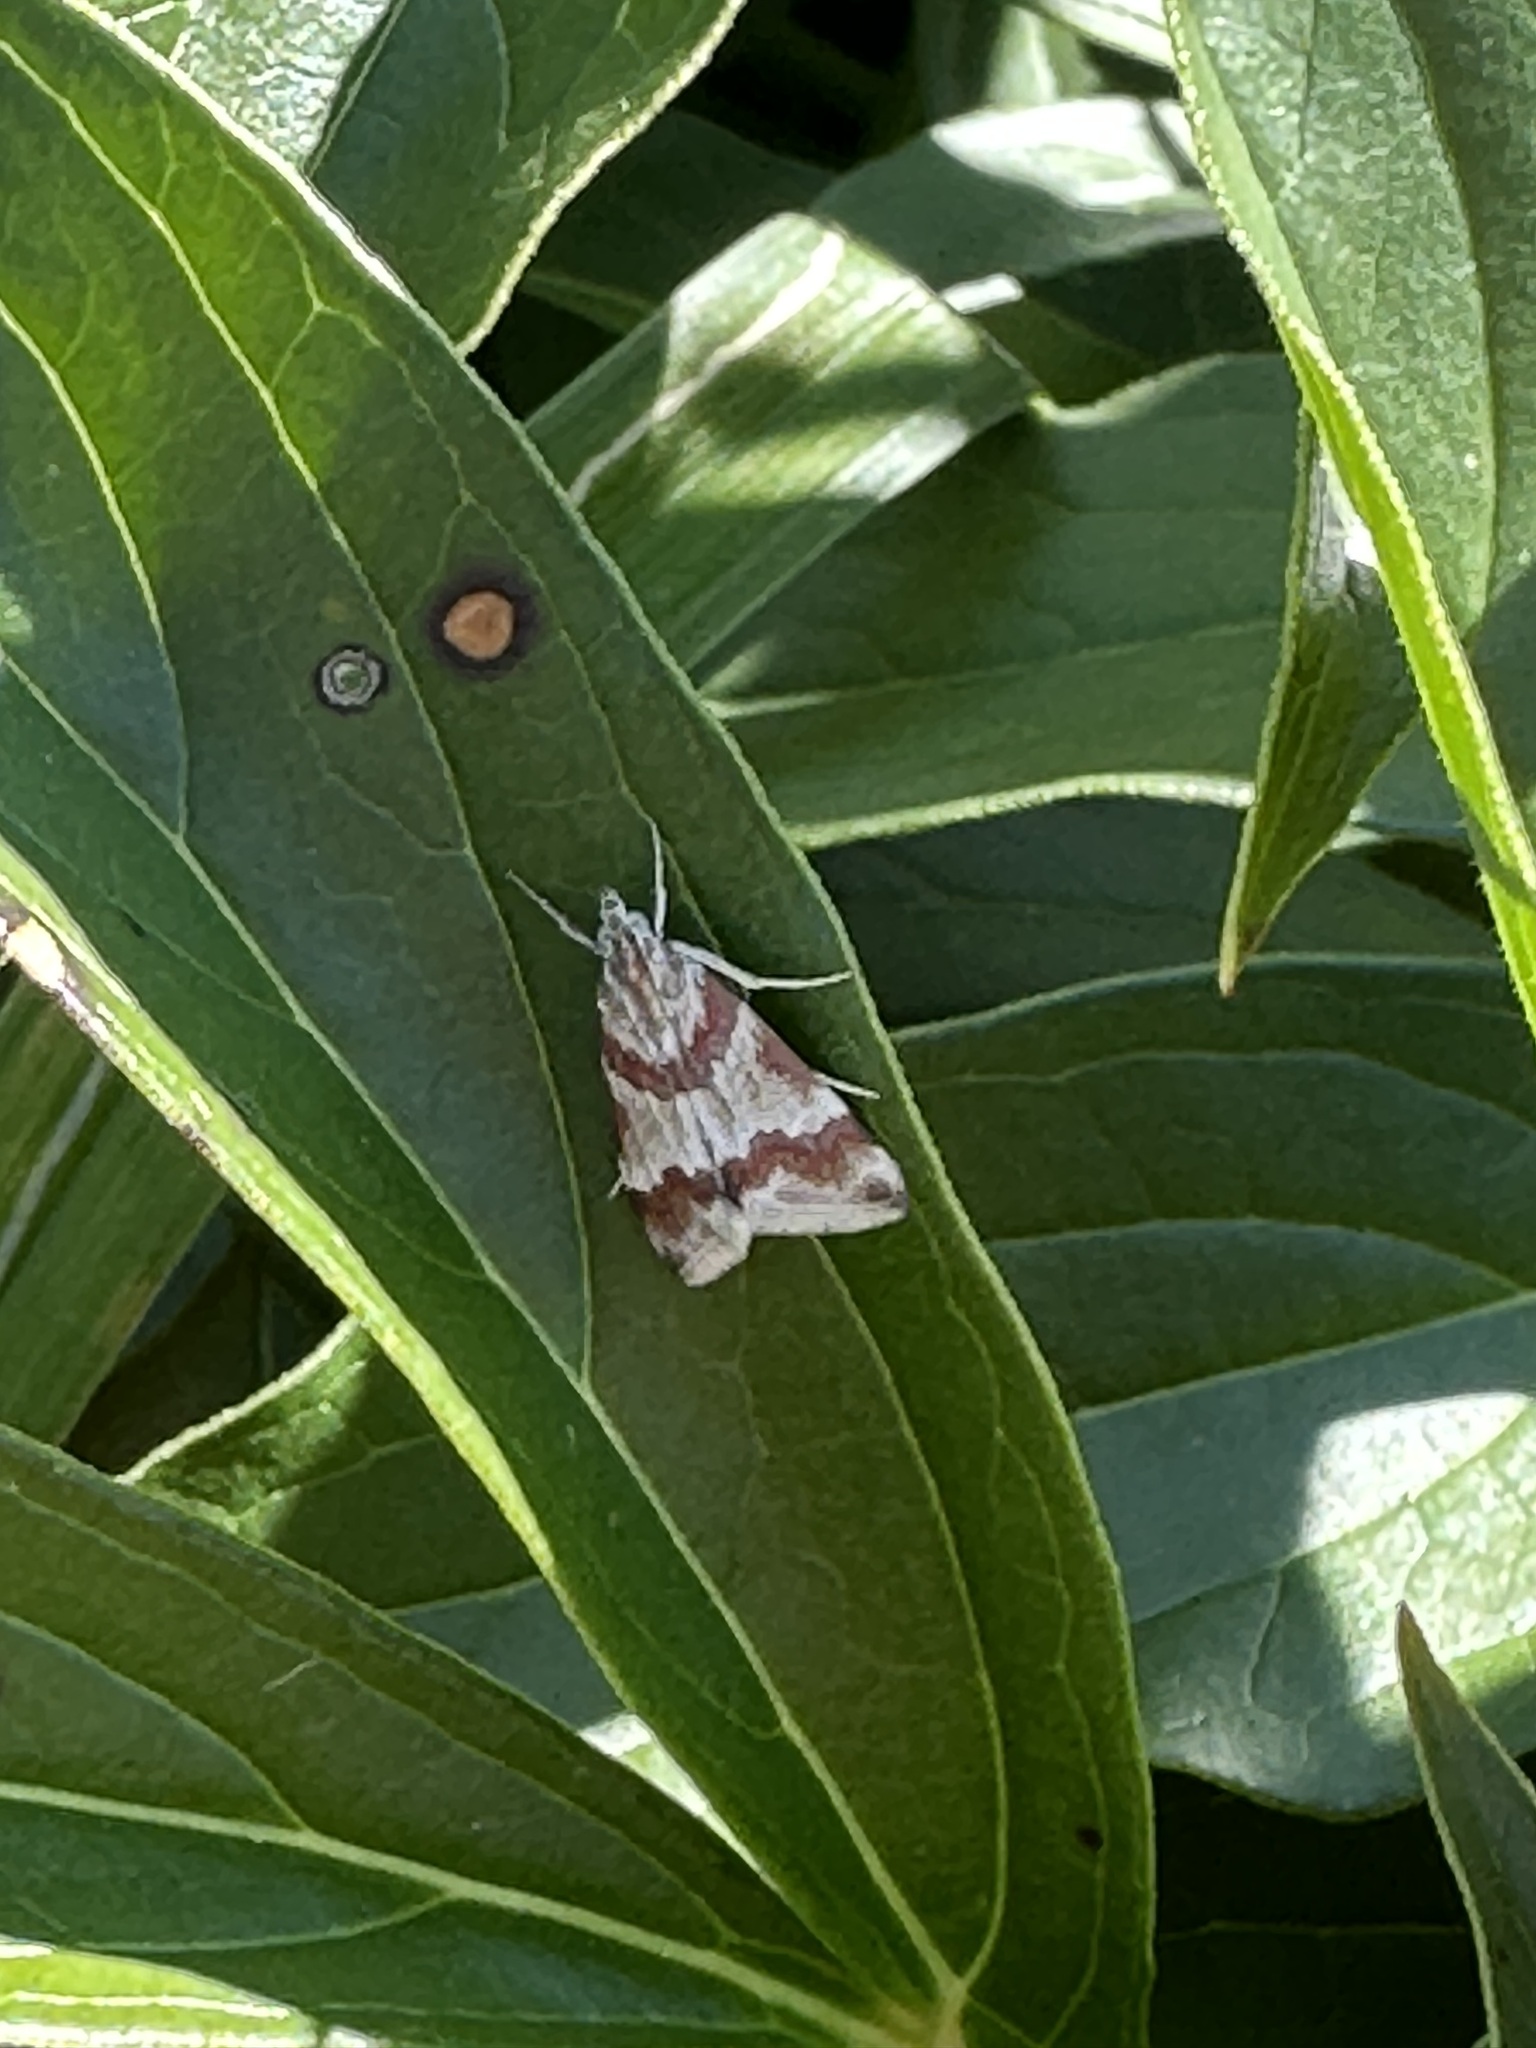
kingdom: Animalia
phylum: Arthropoda
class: Insecta
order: Lepidoptera
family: Crambidae
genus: Noctuelia
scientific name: Noctuelia Mimoschinia rufofascialis
